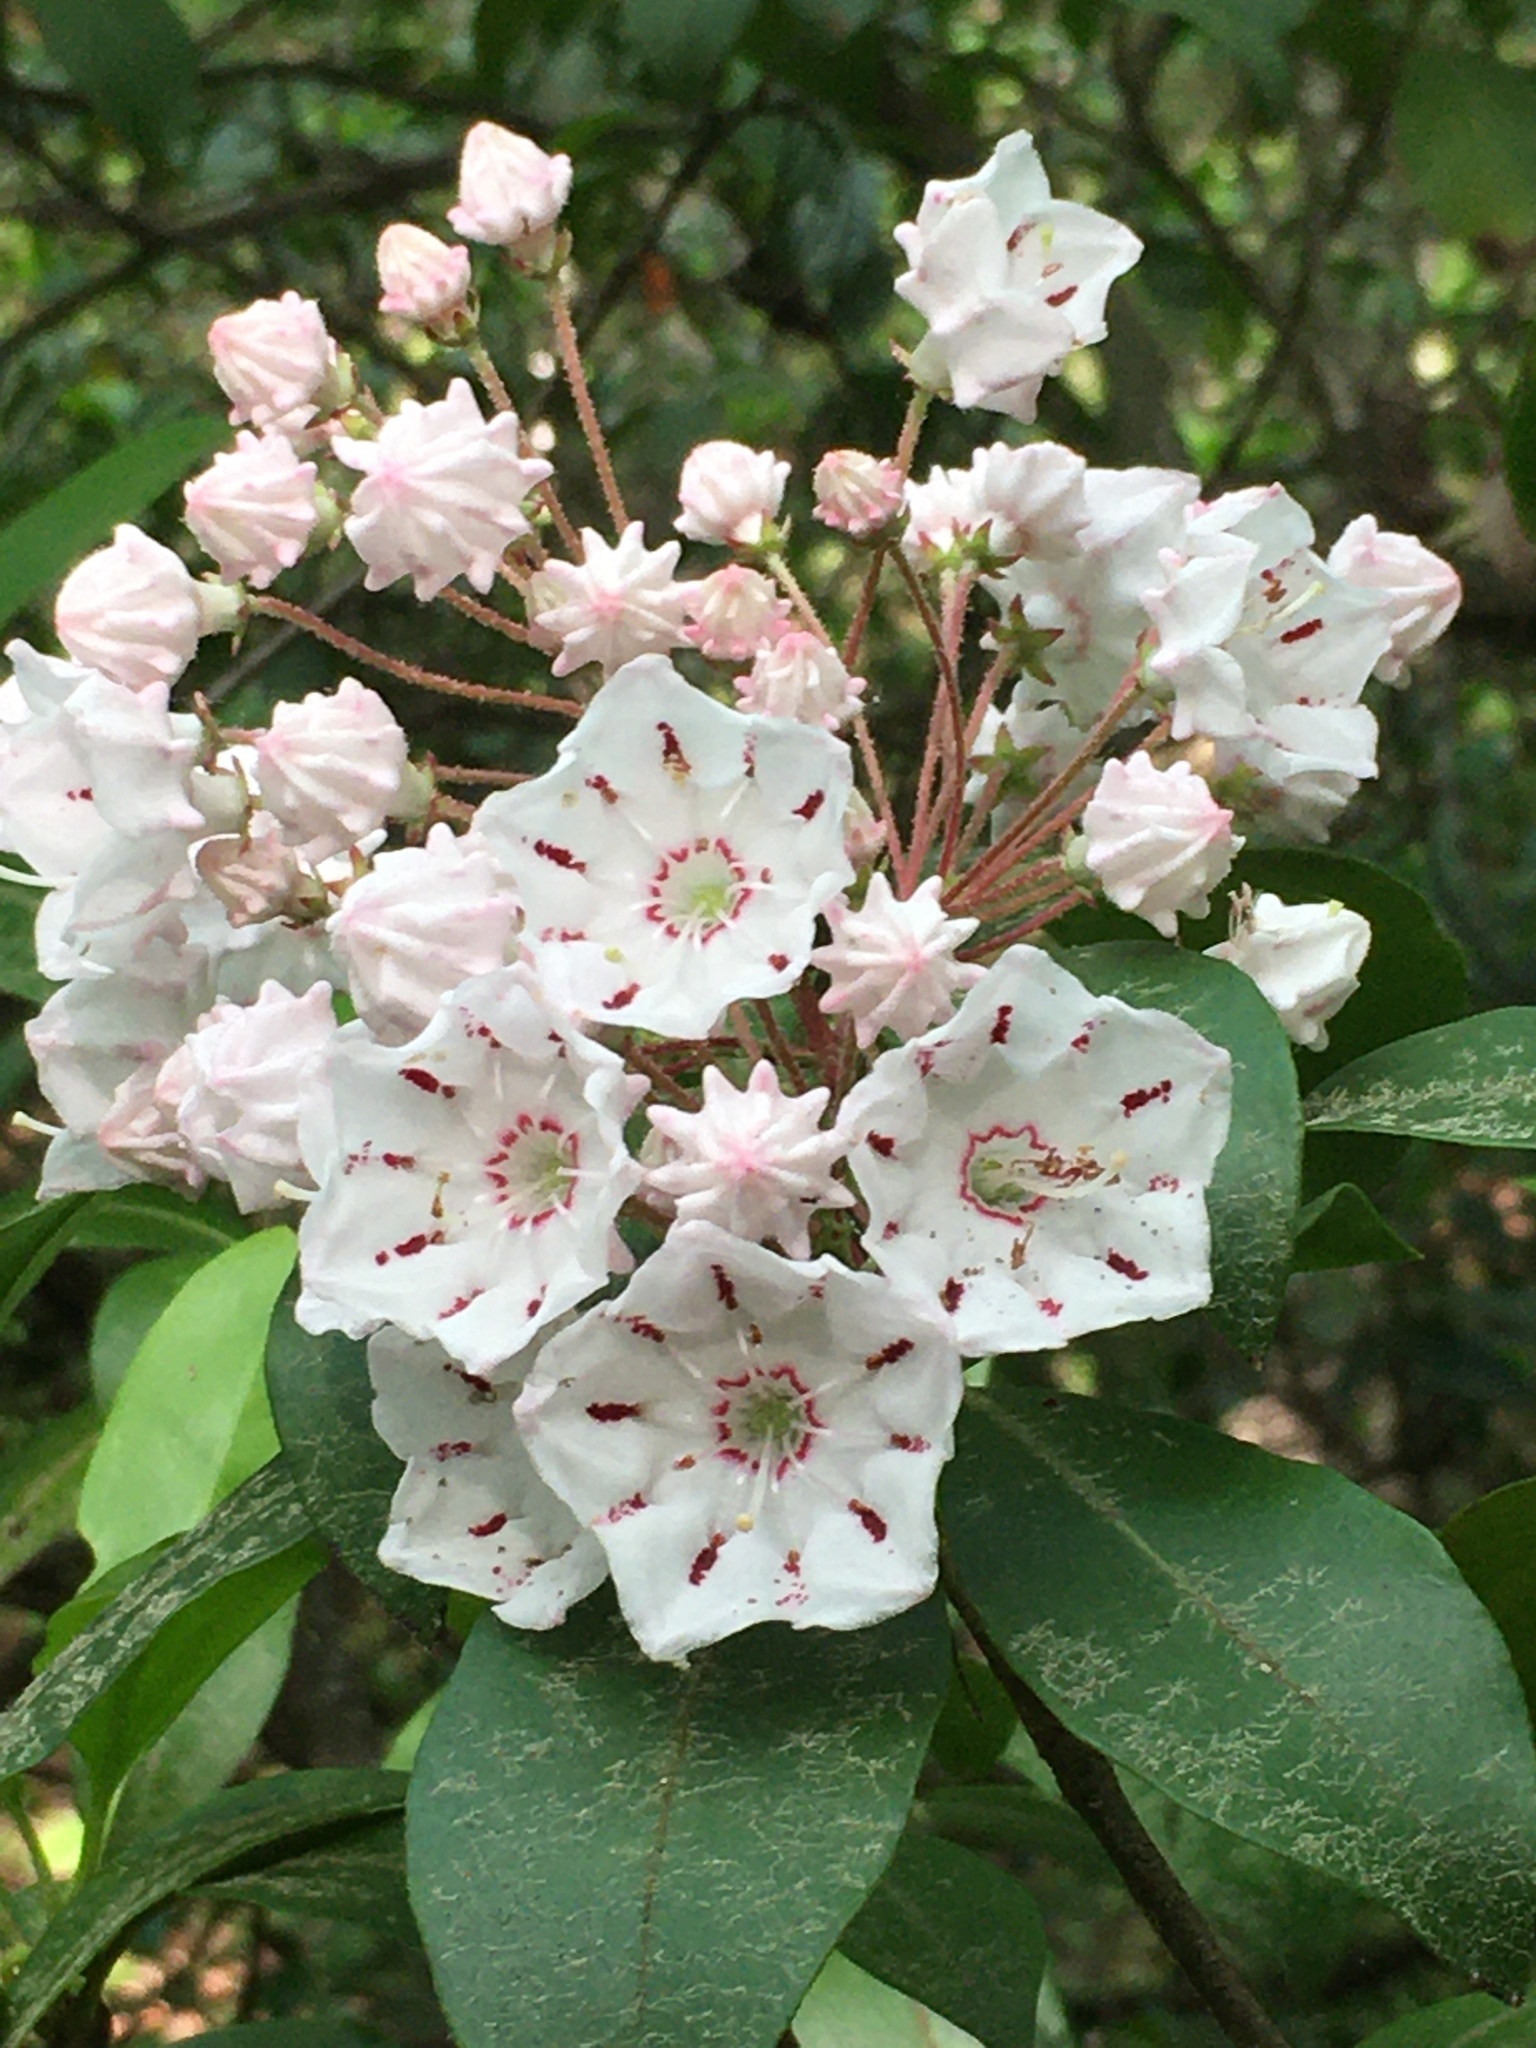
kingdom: Plantae
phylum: Tracheophyta
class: Magnoliopsida
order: Ericales
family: Ericaceae
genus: Kalmia
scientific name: Kalmia latifolia
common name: Mountain-laurel
